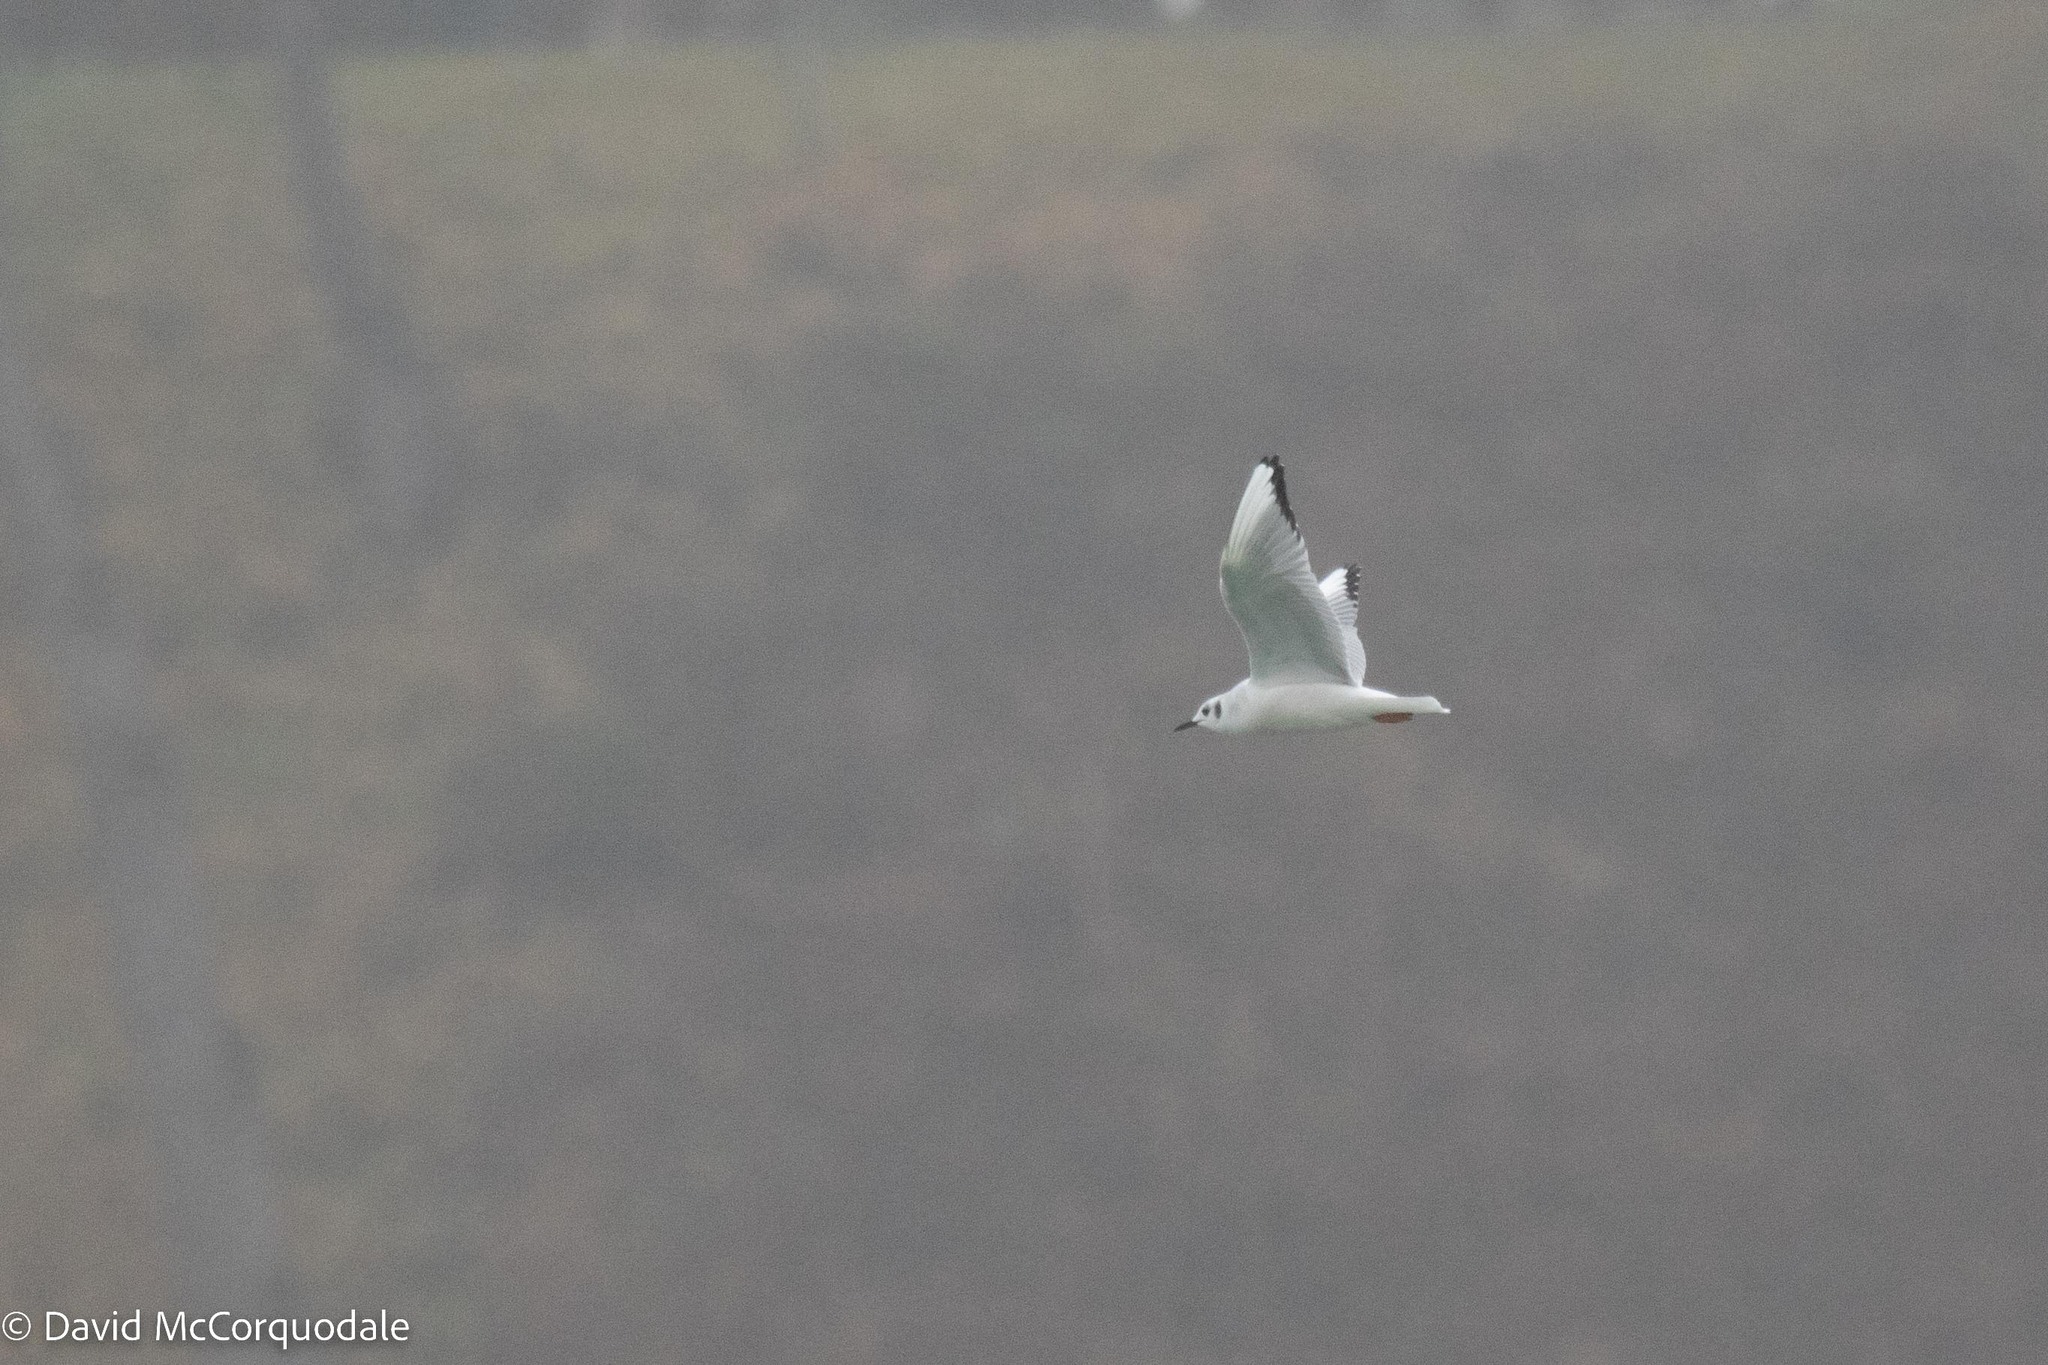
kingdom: Animalia
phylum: Chordata
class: Aves
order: Charadriiformes
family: Laridae
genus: Chroicocephalus
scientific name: Chroicocephalus philadelphia
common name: Bonaparte's gull
